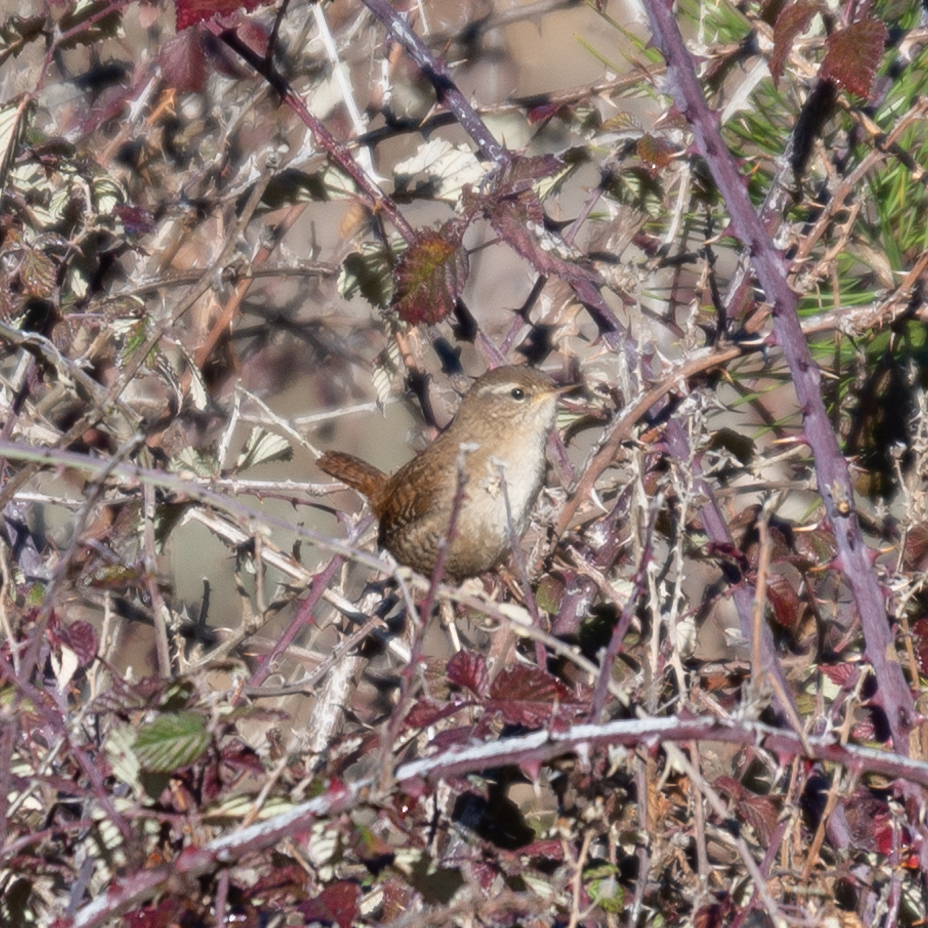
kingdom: Animalia
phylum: Chordata
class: Aves
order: Passeriformes
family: Troglodytidae
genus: Troglodytes
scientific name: Troglodytes troglodytes
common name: Eurasian wren
